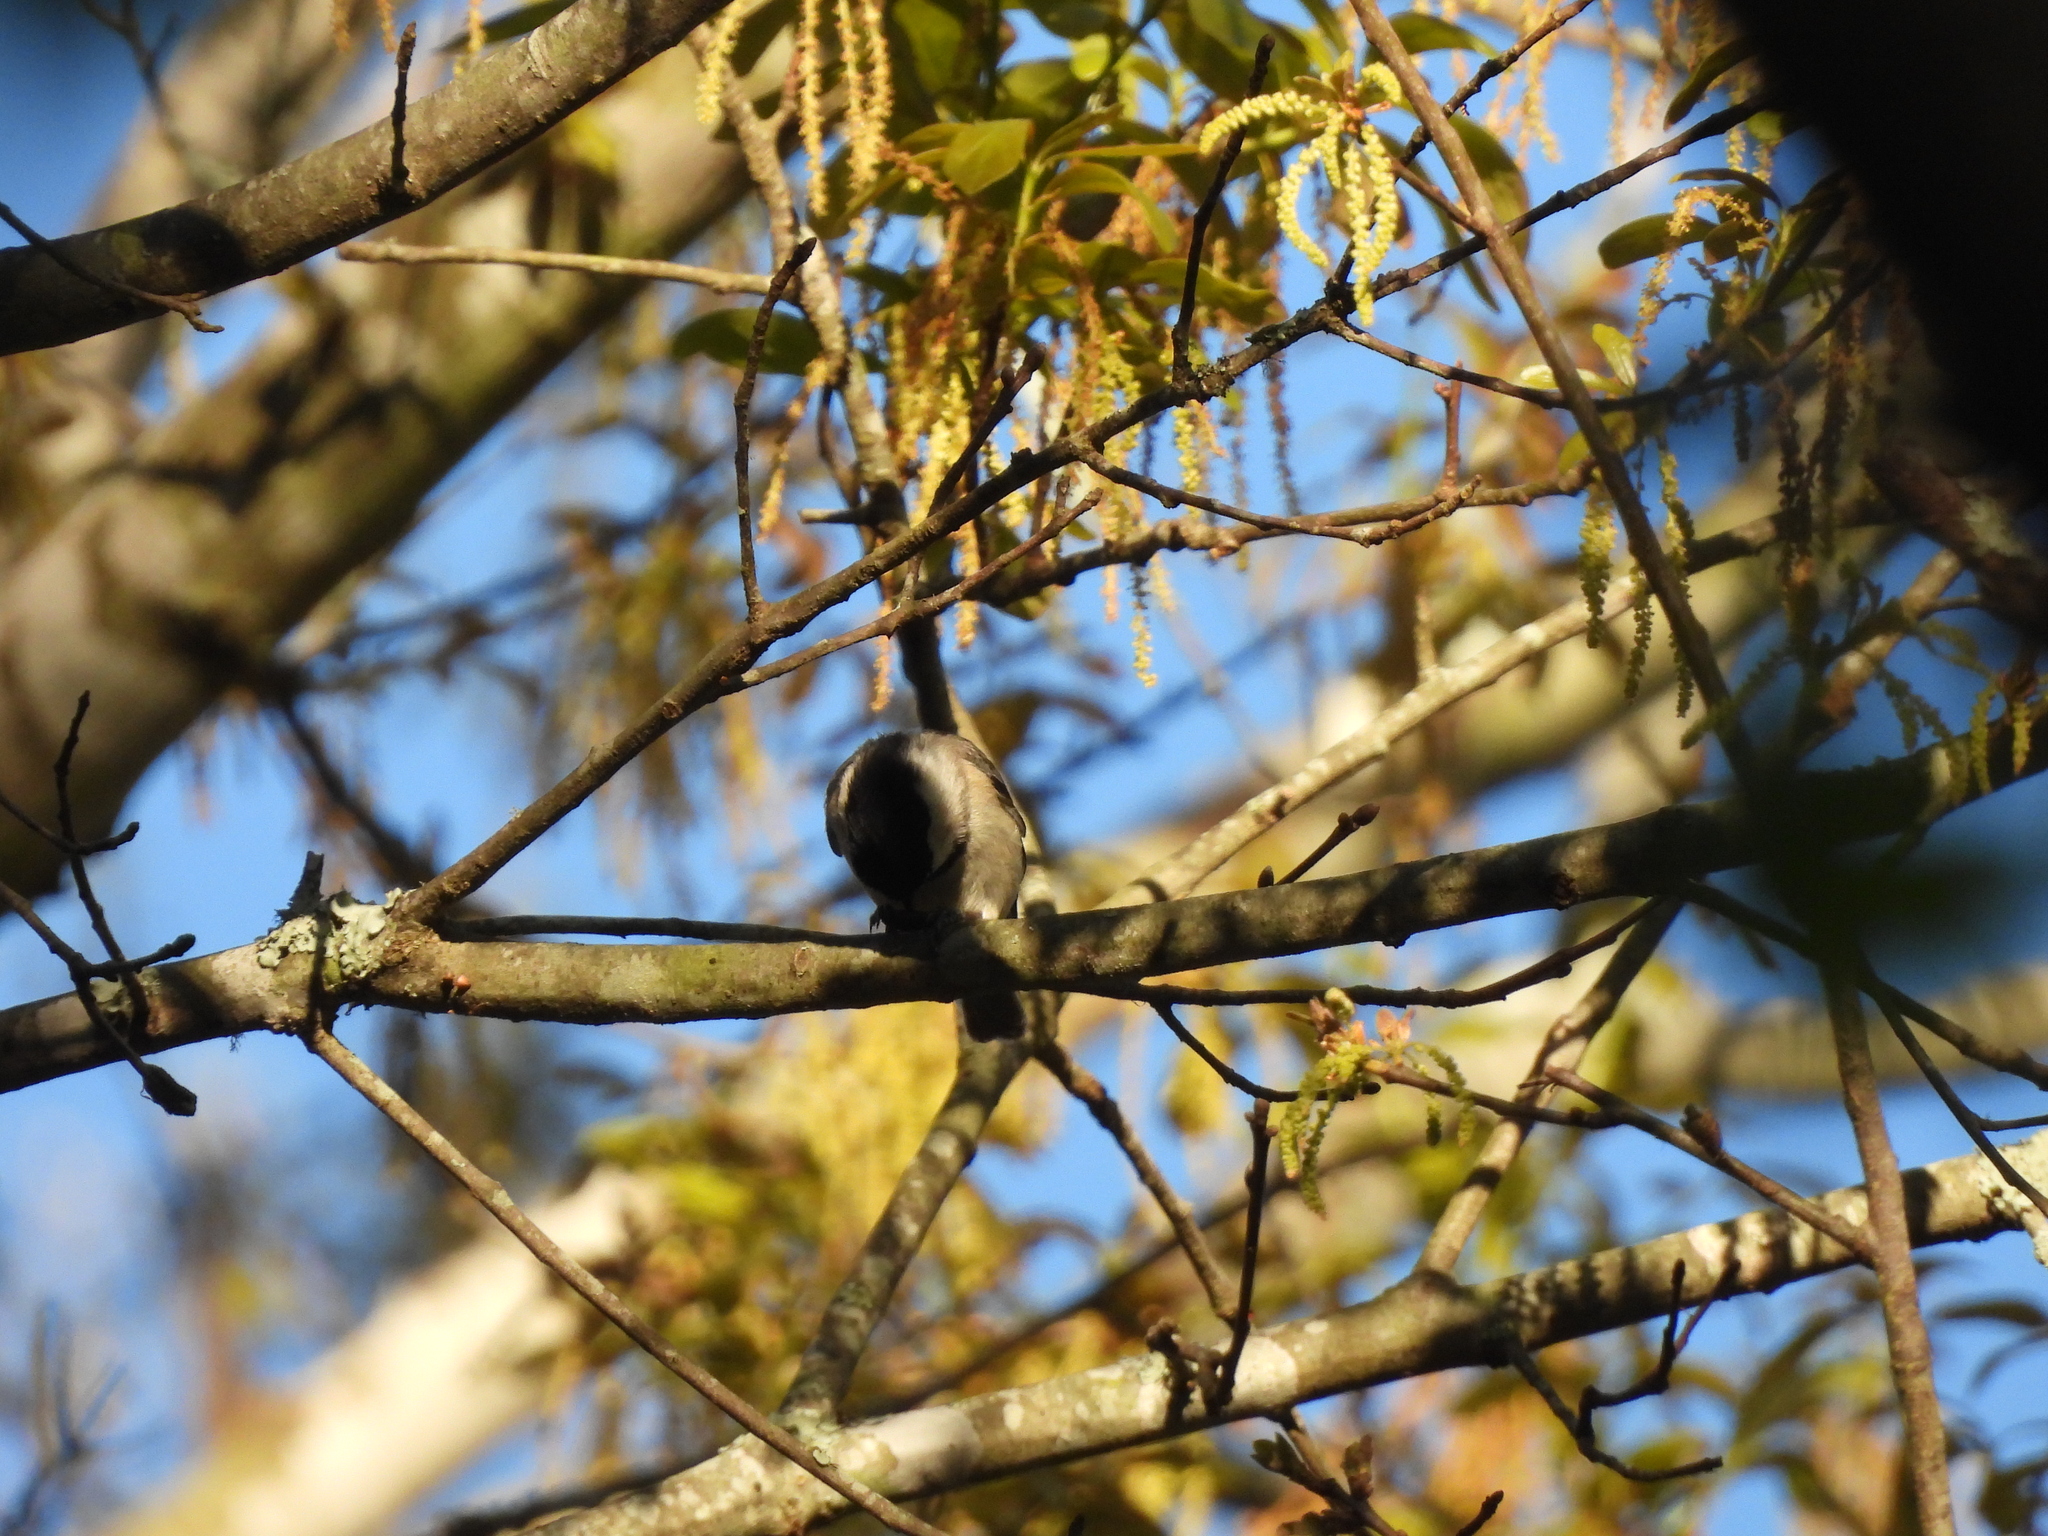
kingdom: Animalia
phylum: Chordata
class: Aves
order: Passeriformes
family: Paridae
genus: Poecile
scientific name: Poecile carolinensis
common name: Carolina chickadee
